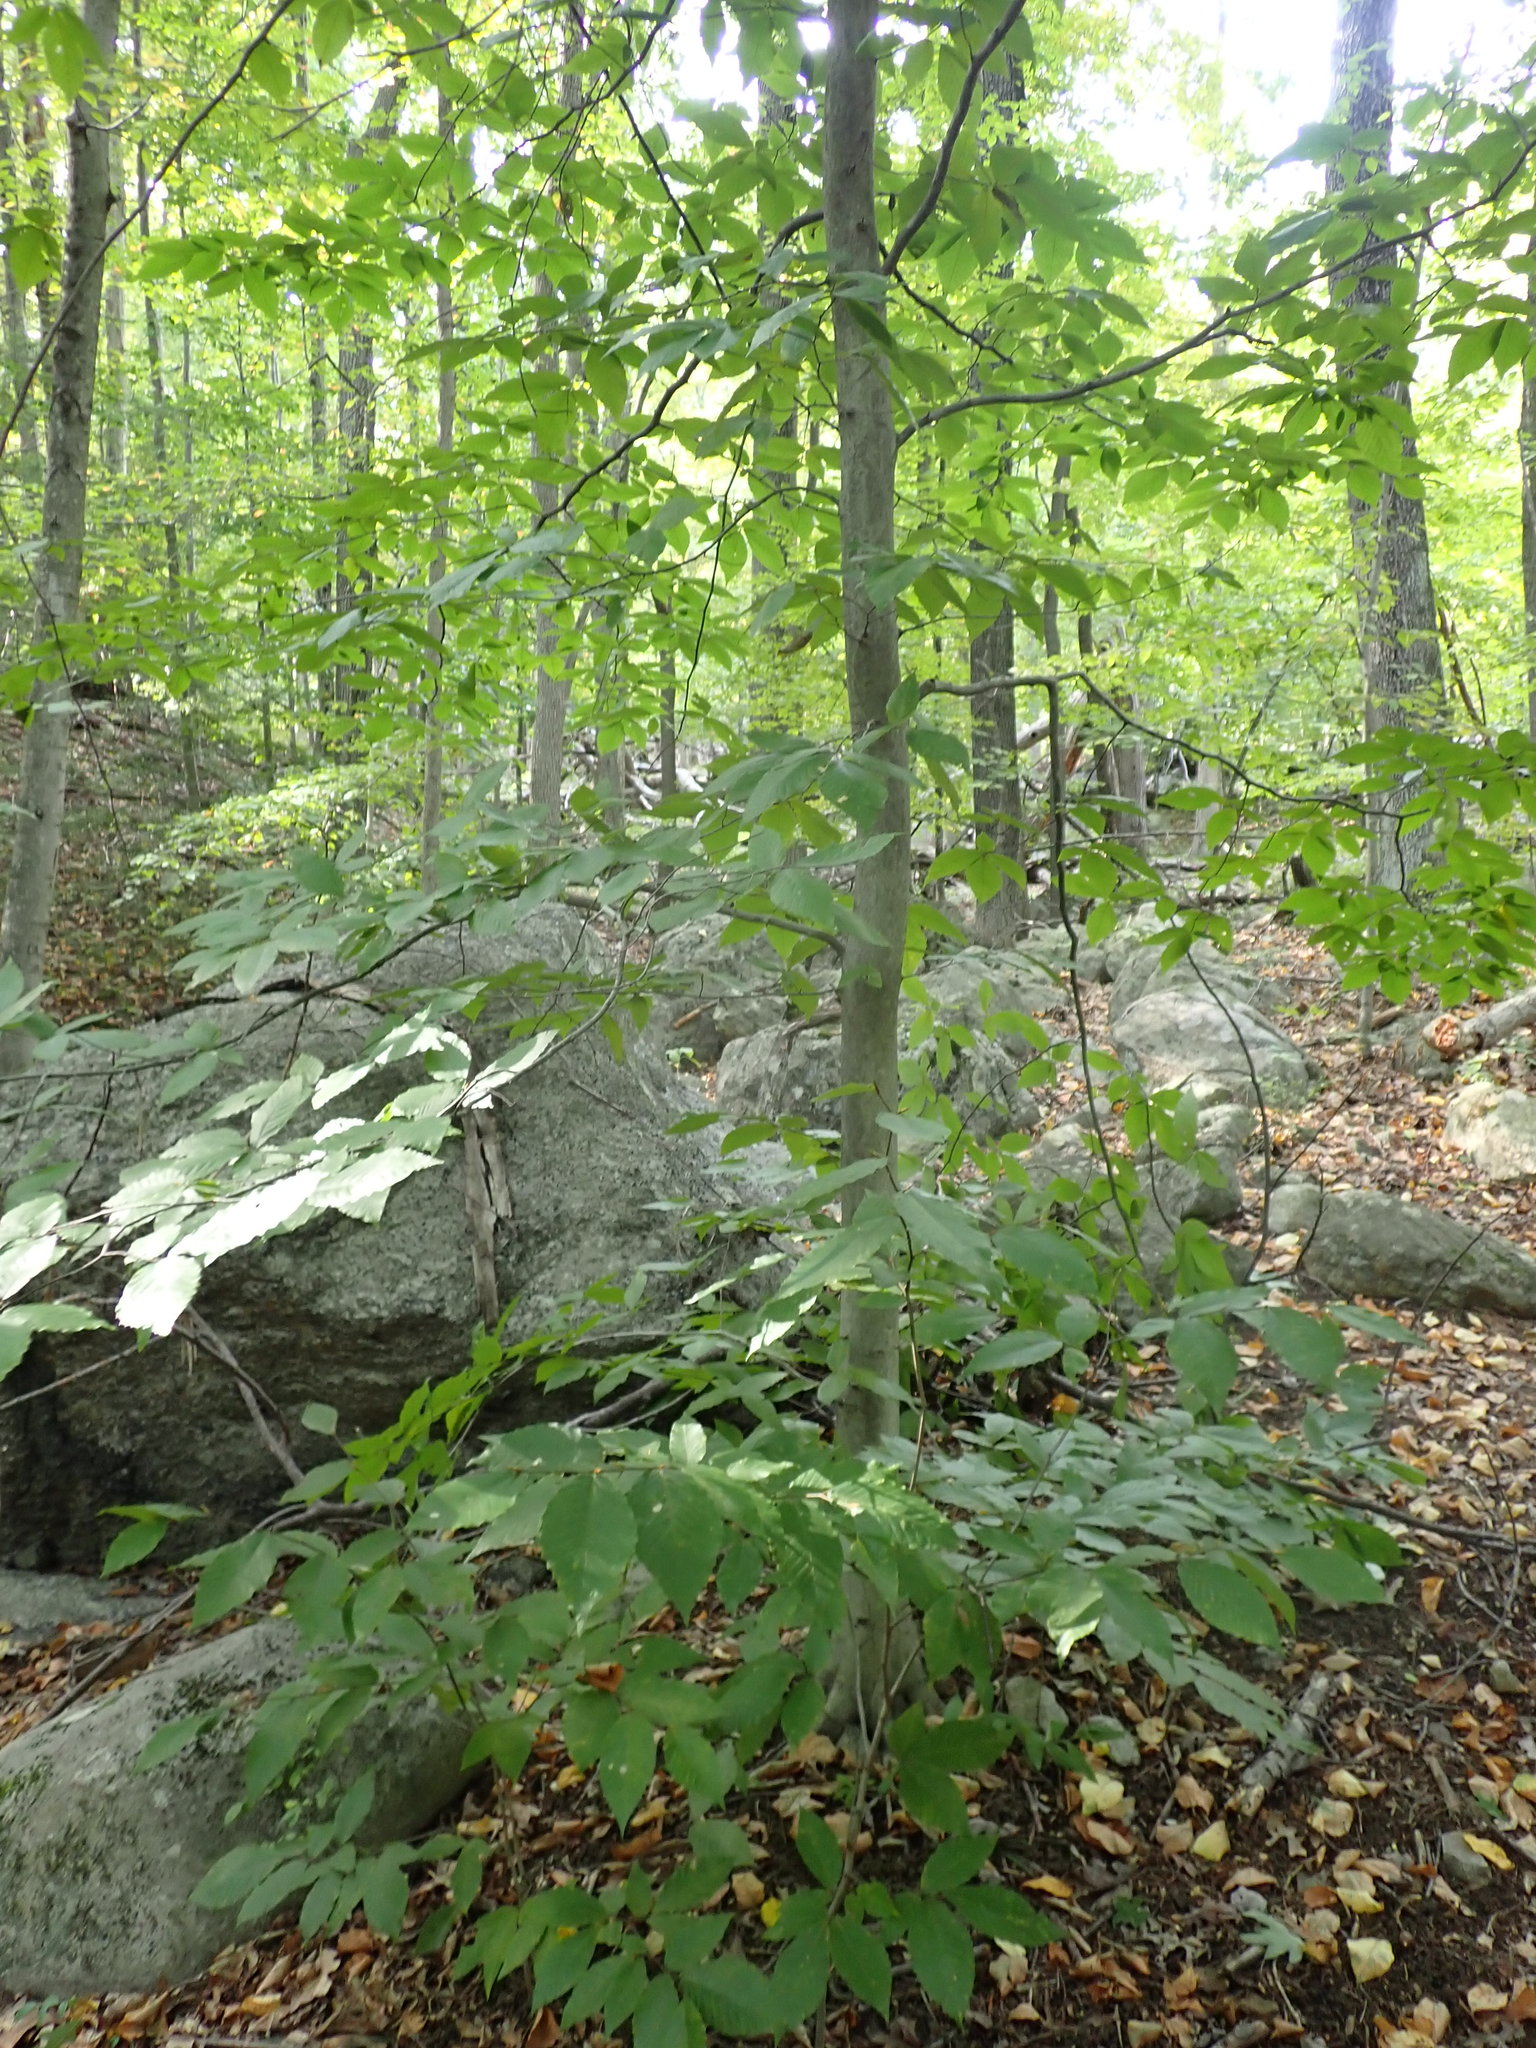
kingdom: Plantae
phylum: Tracheophyta
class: Magnoliopsida
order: Fagales
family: Fagaceae
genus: Fagus
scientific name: Fagus grandifolia
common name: American beech
